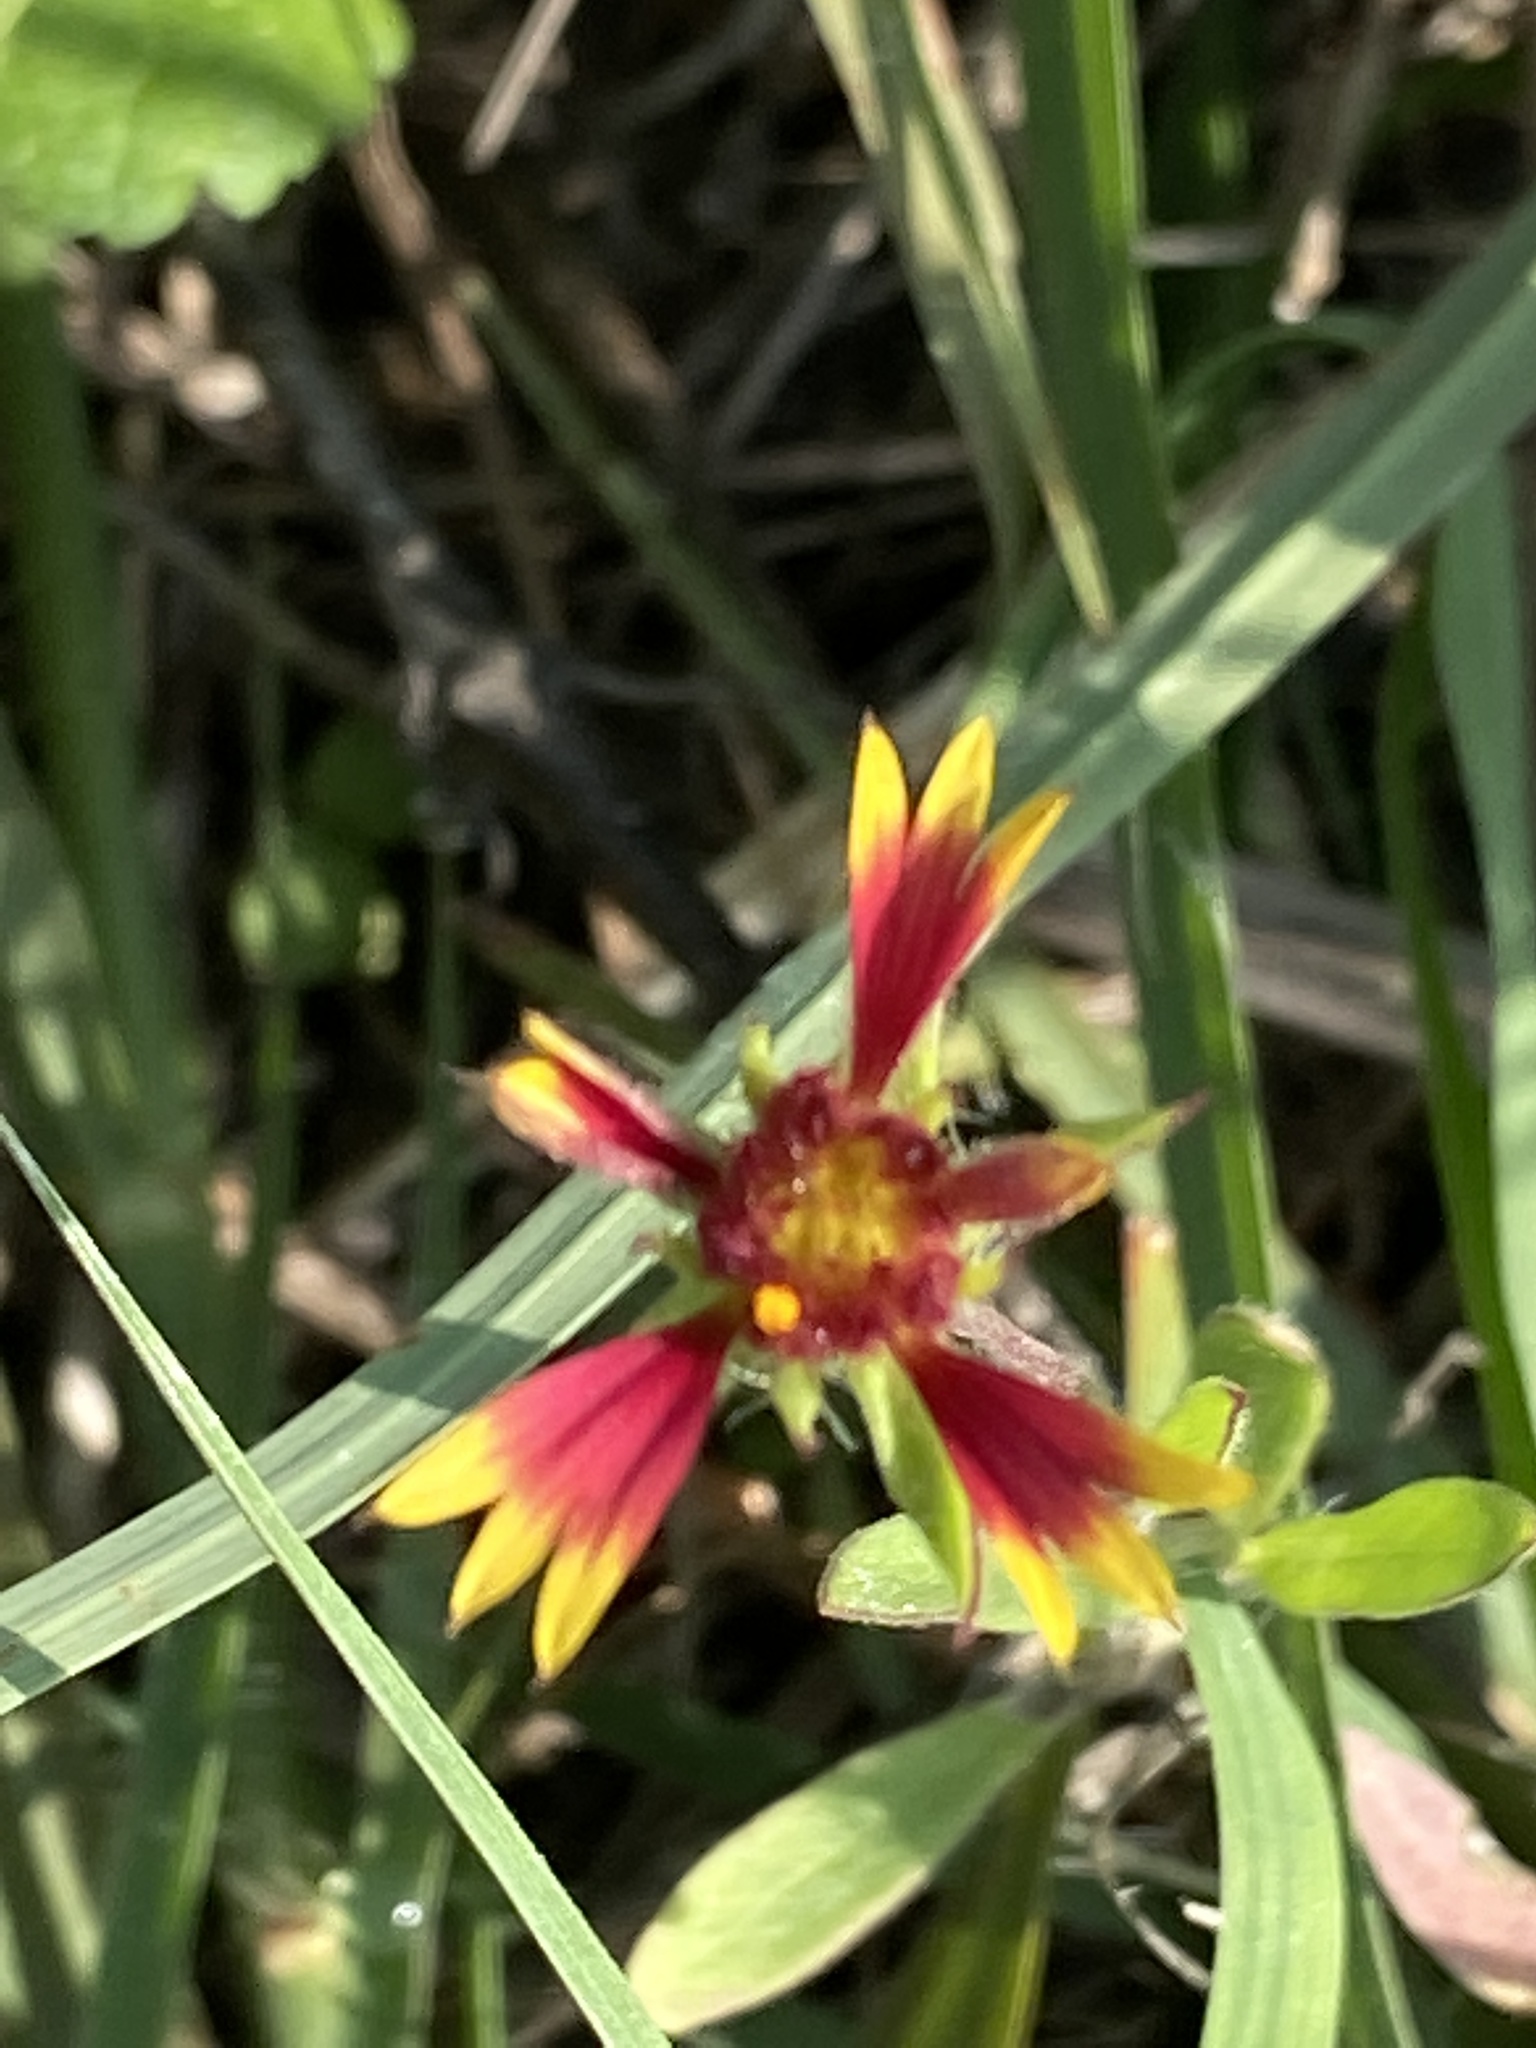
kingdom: Plantae
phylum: Tracheophyta
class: Magnoliopsida
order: Asterales
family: Asteraceae
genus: Gaillardia
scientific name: Gaillardia pulchella
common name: Firewheel
